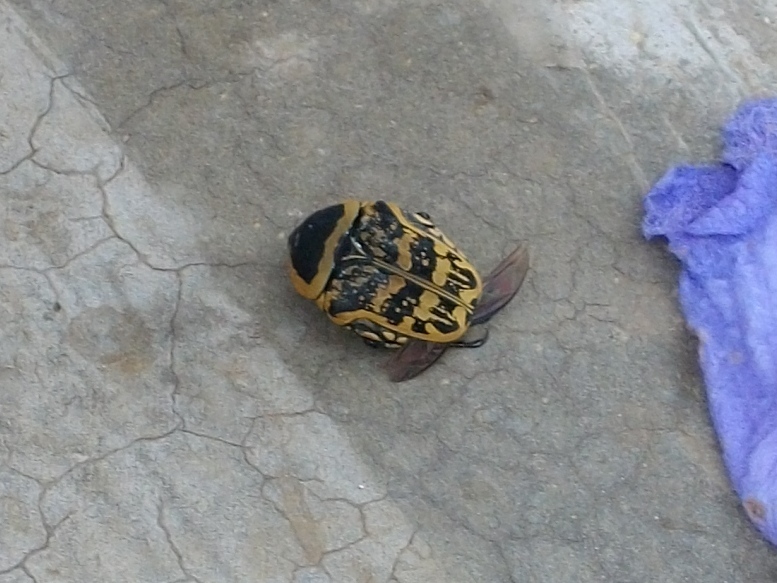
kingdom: Animalia
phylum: Arthropoda
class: Insecta
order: Coleoptera
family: Scarabaeidae
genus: Euryomia
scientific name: Euryomia argentea
